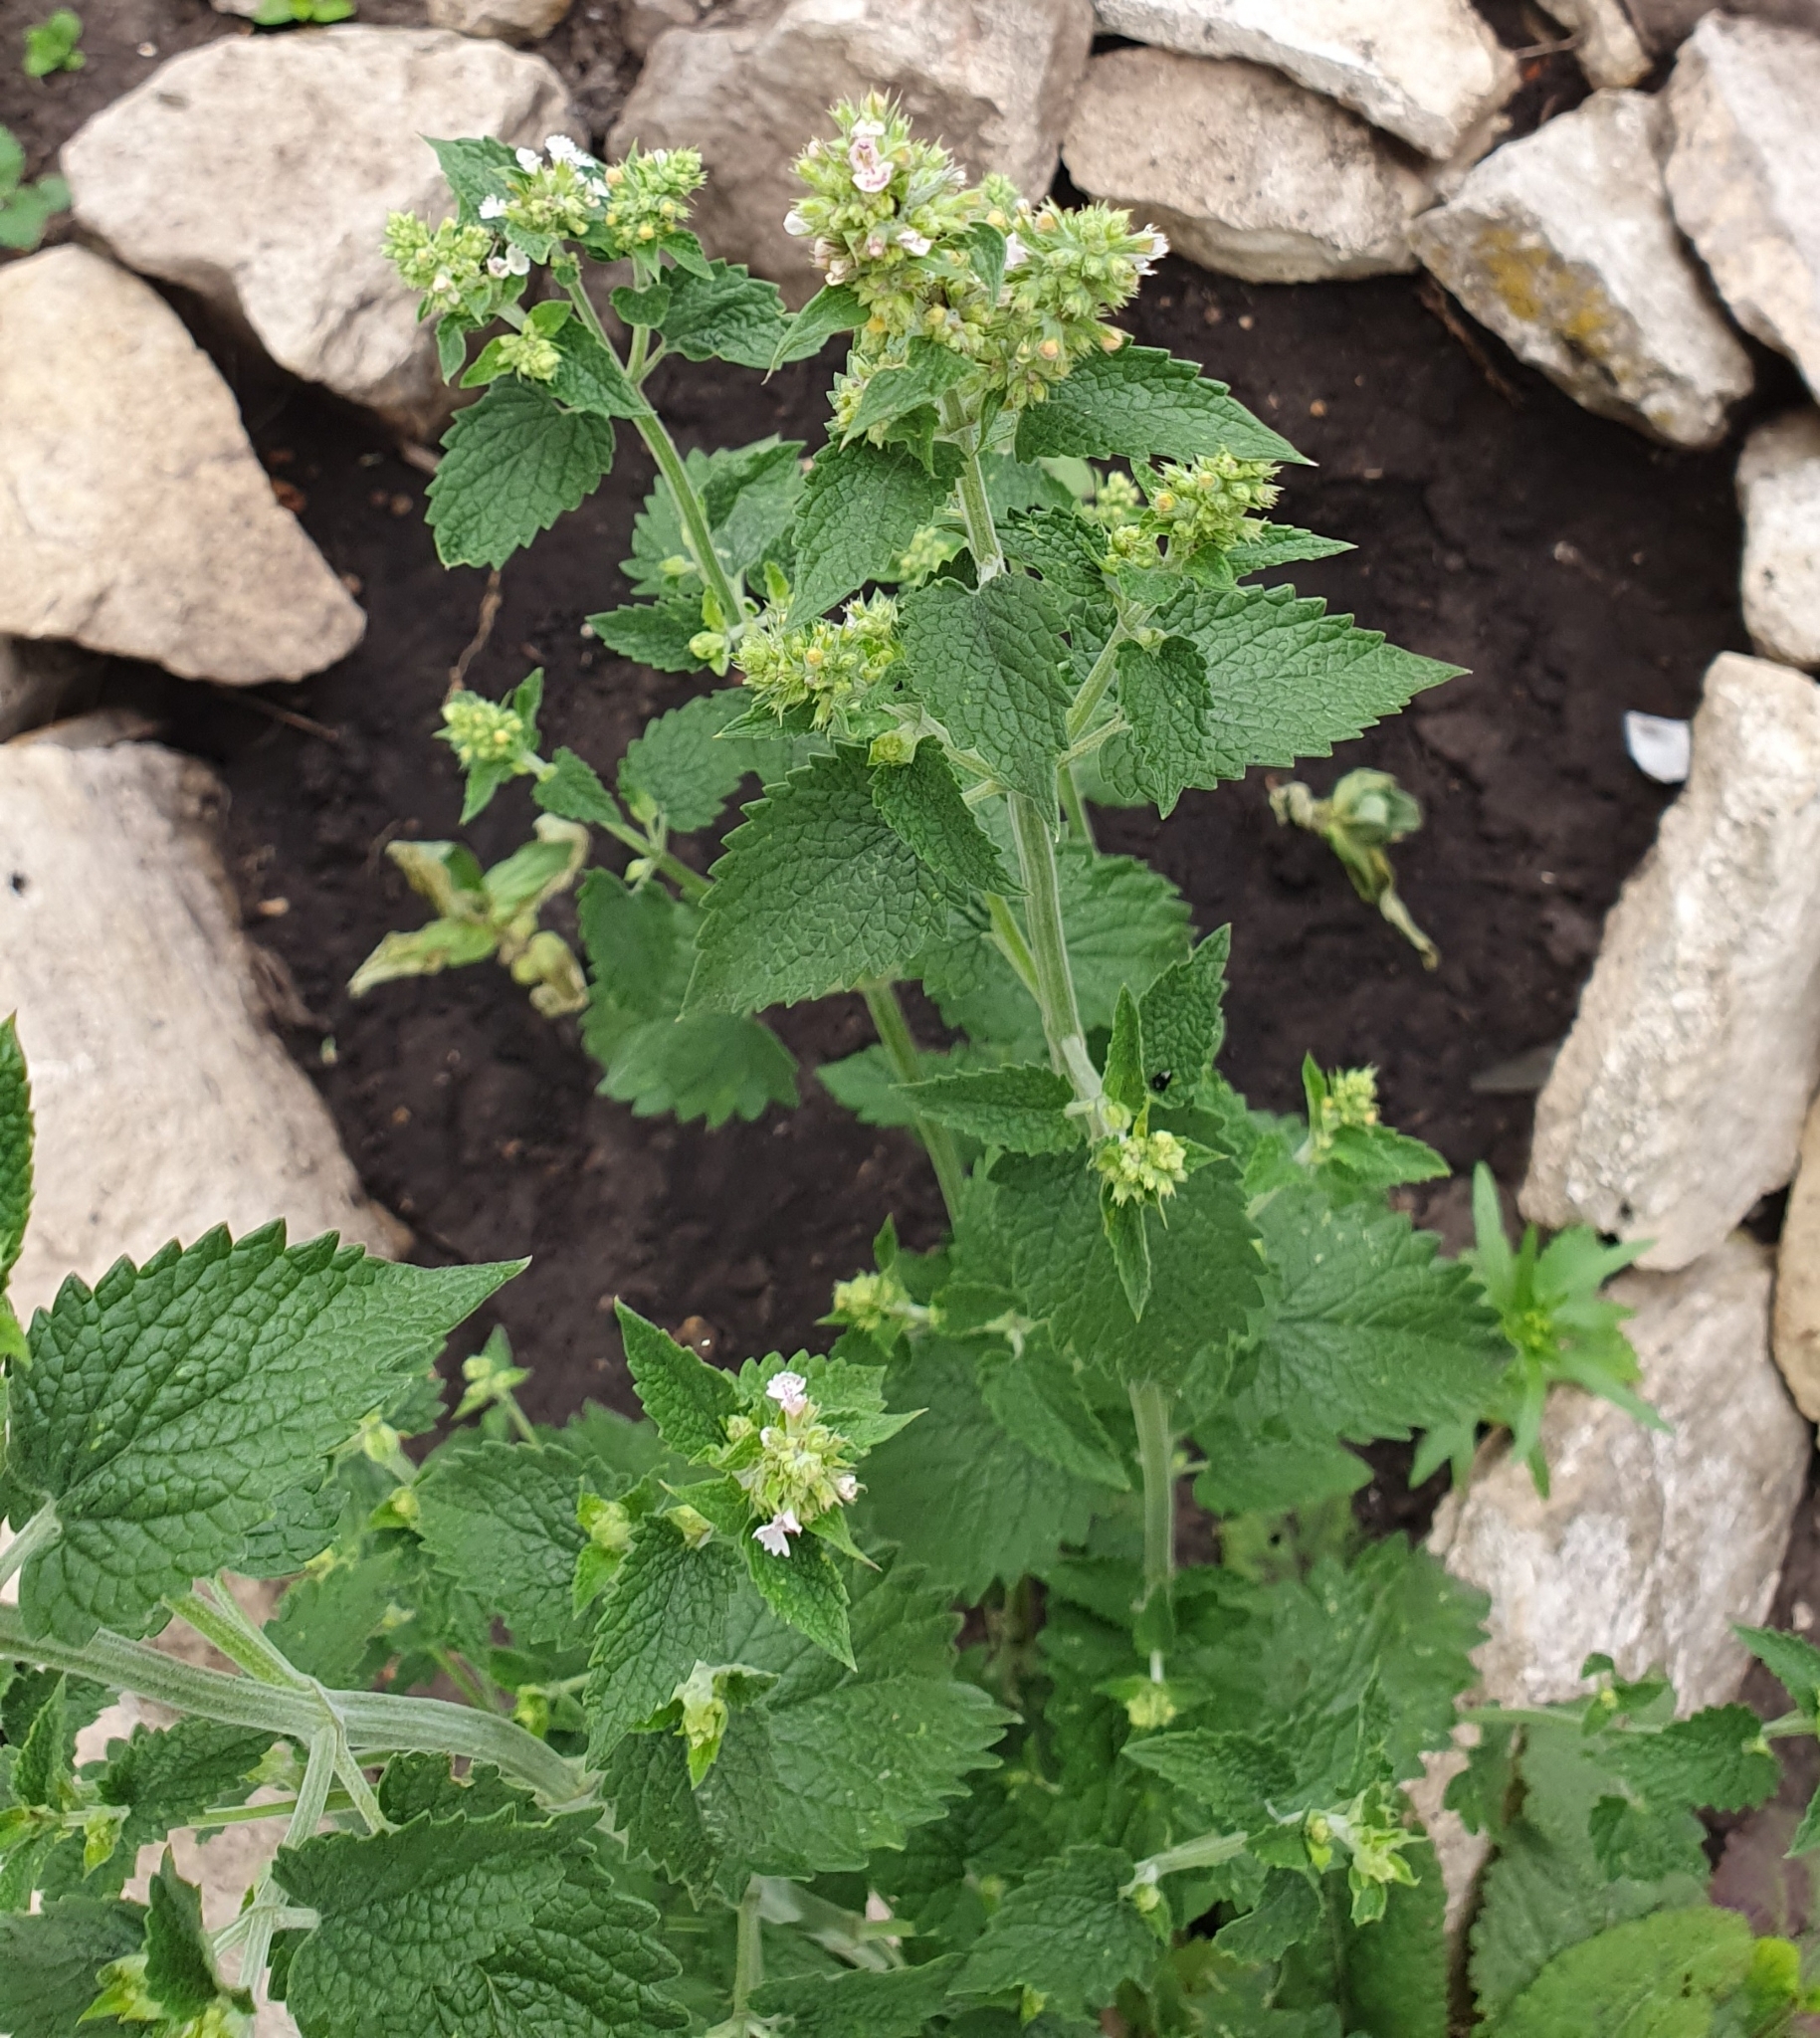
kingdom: Plantae
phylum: Tracheophyta
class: Magnoliopsida
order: Lamiales
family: Lamiaceae
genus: Nepeta
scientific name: Nepeta cataria
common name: Catnip
